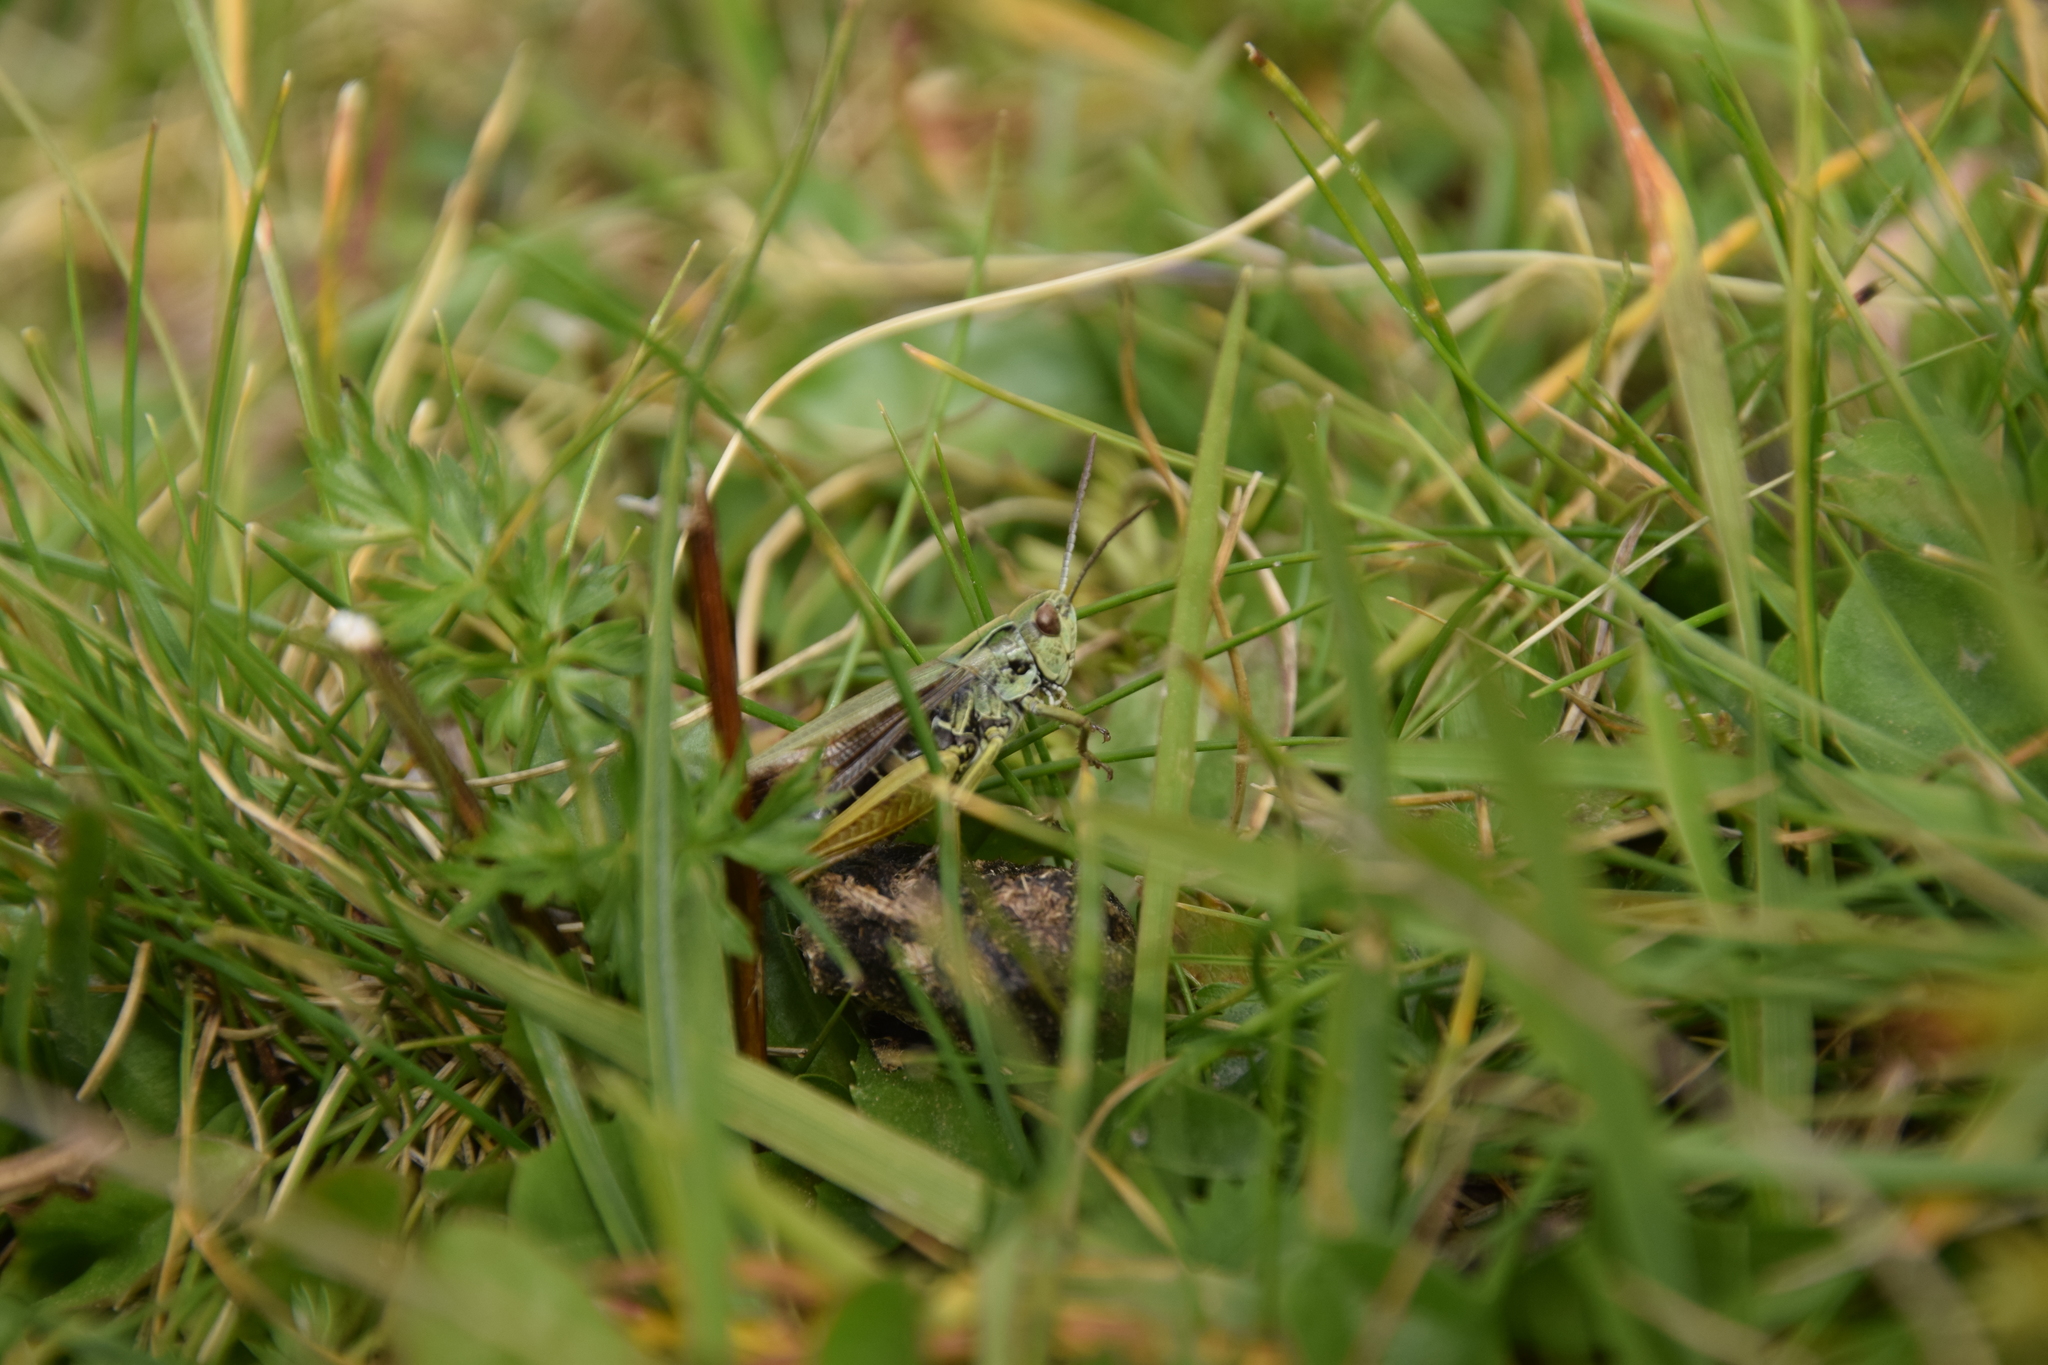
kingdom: Animalia
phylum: Arthropoda
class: Insecta
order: Orthoptera
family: Acrididae
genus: Omocestus
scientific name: Omocestus viridulus
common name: Common green grasshopper
